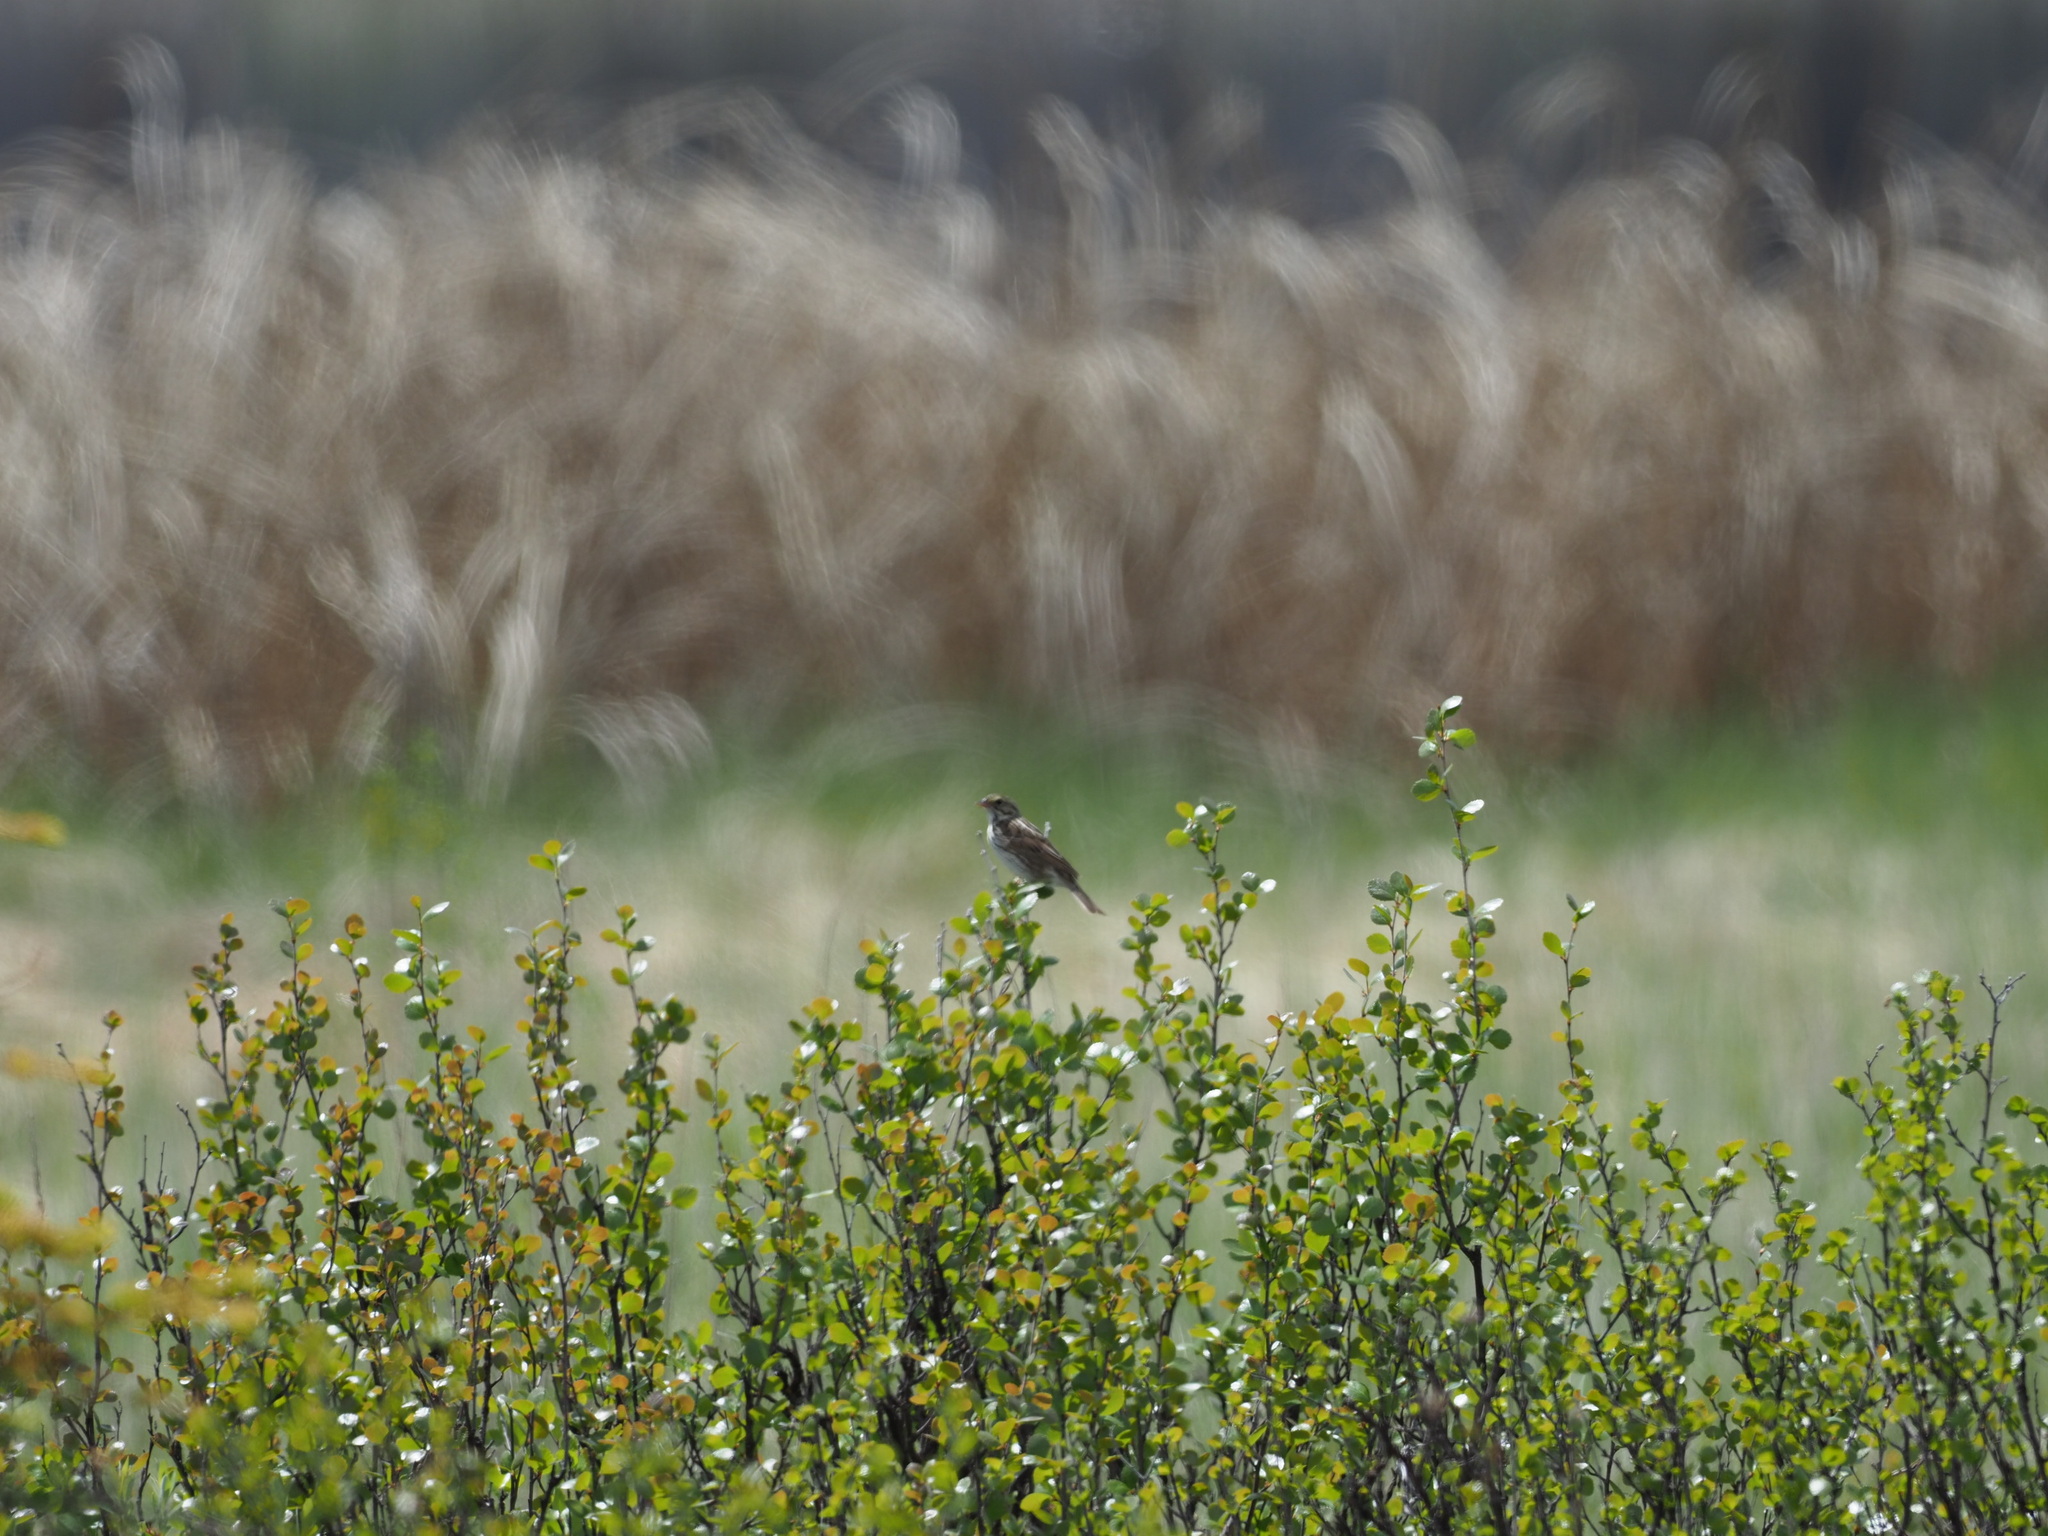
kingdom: Animalia
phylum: Chordata
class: Aves
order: Passeriformes
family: Passerellidae
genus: Passerculus
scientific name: Passerculus sandwichensis
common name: Savannah sparrow
